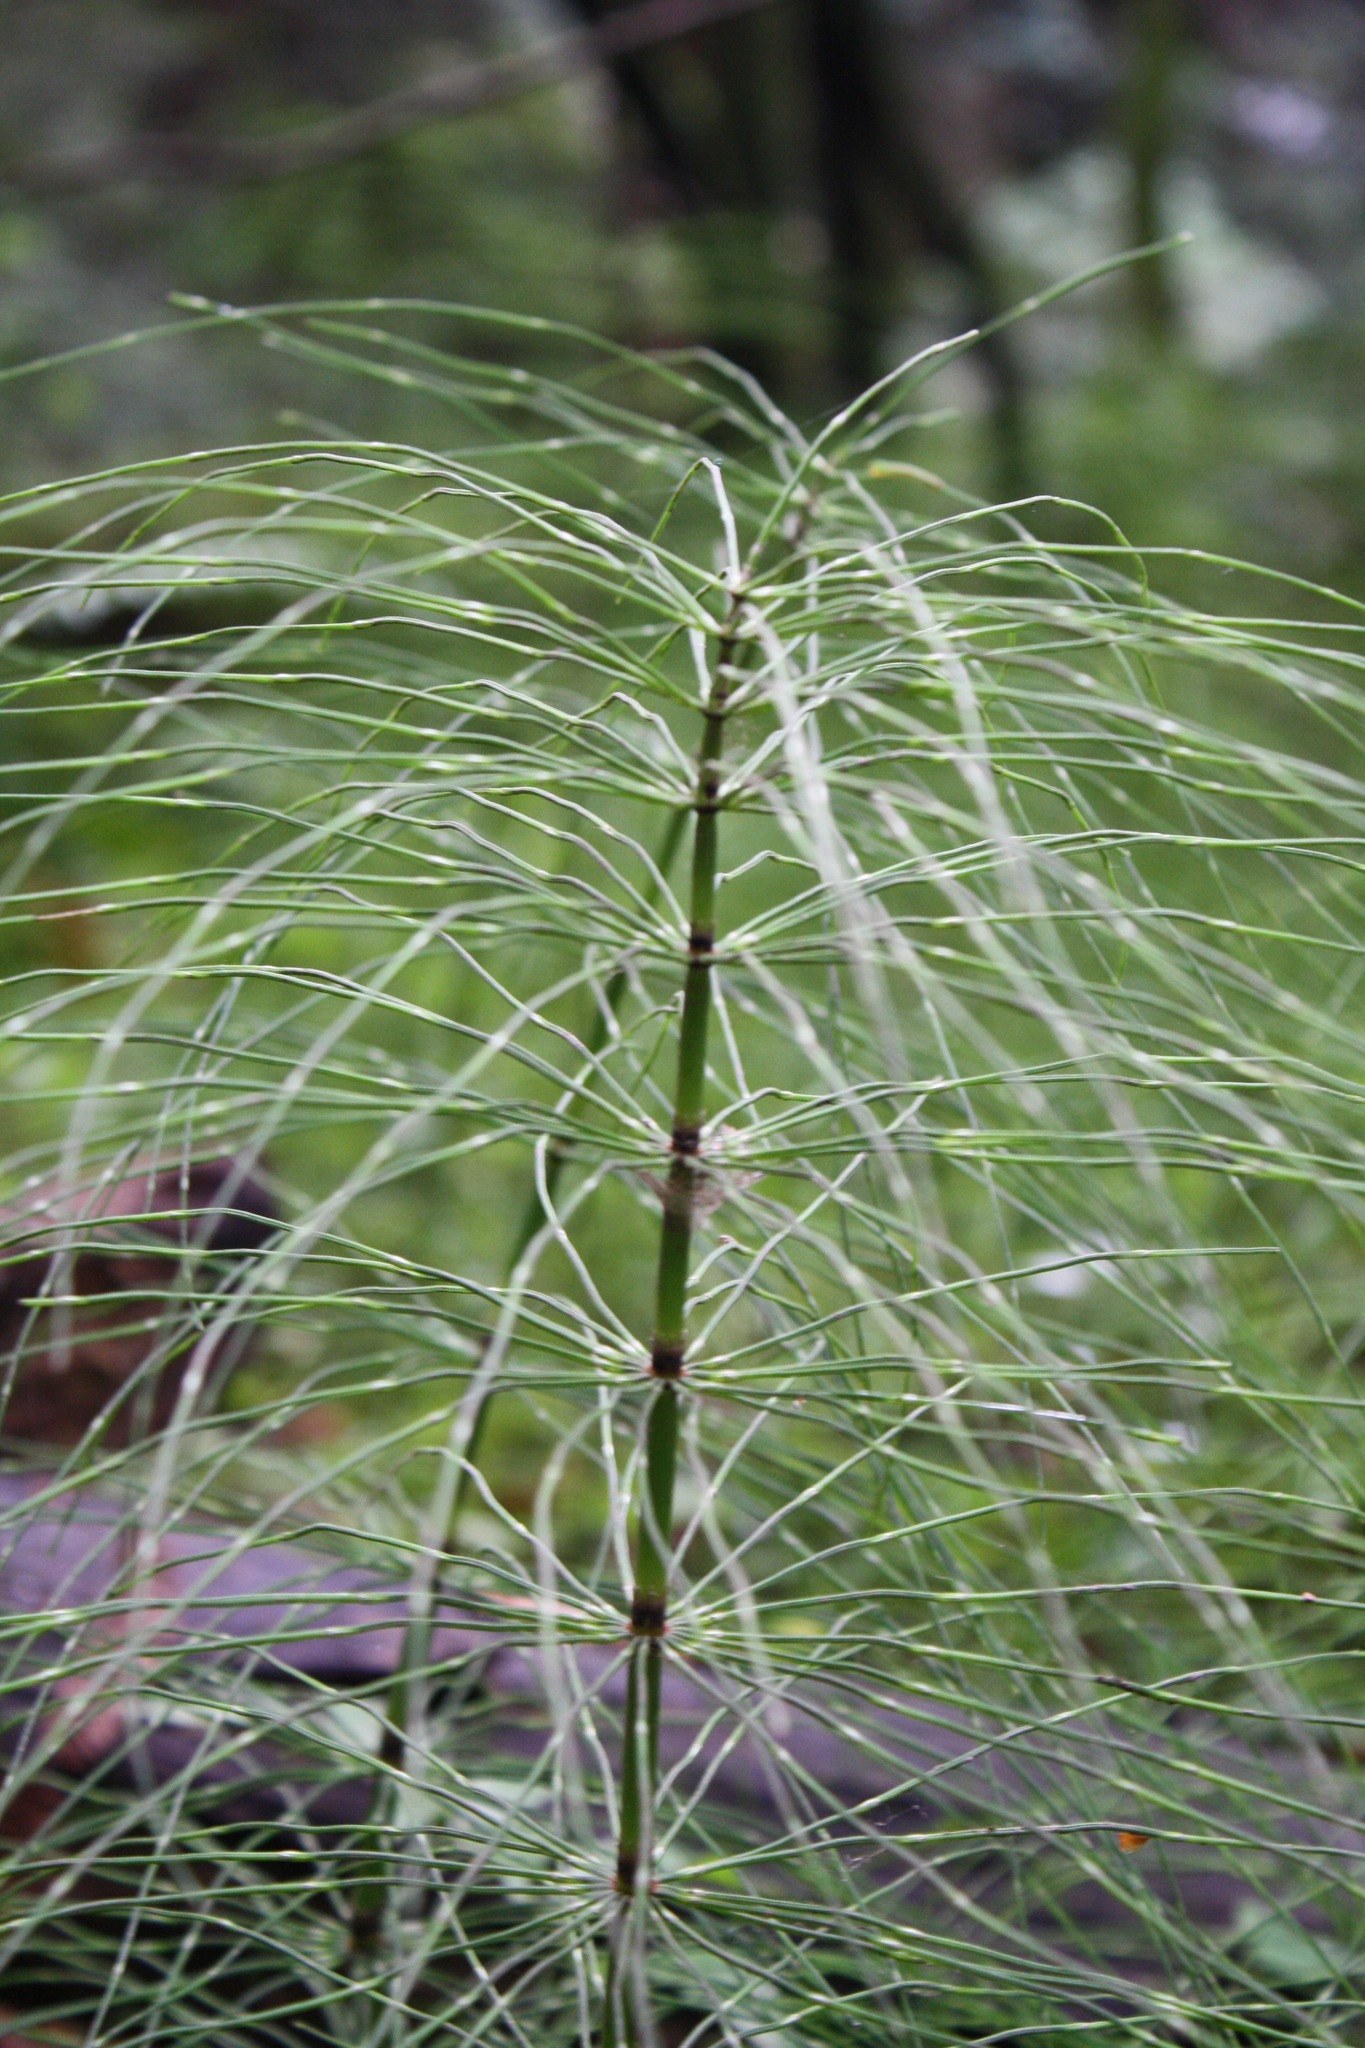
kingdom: Plantae
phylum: Tracheophyta
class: Polypodiopsida
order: Equisetales
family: Equisetaceae
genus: Equisetum
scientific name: Equisetum telmateia
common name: Great horsetail
